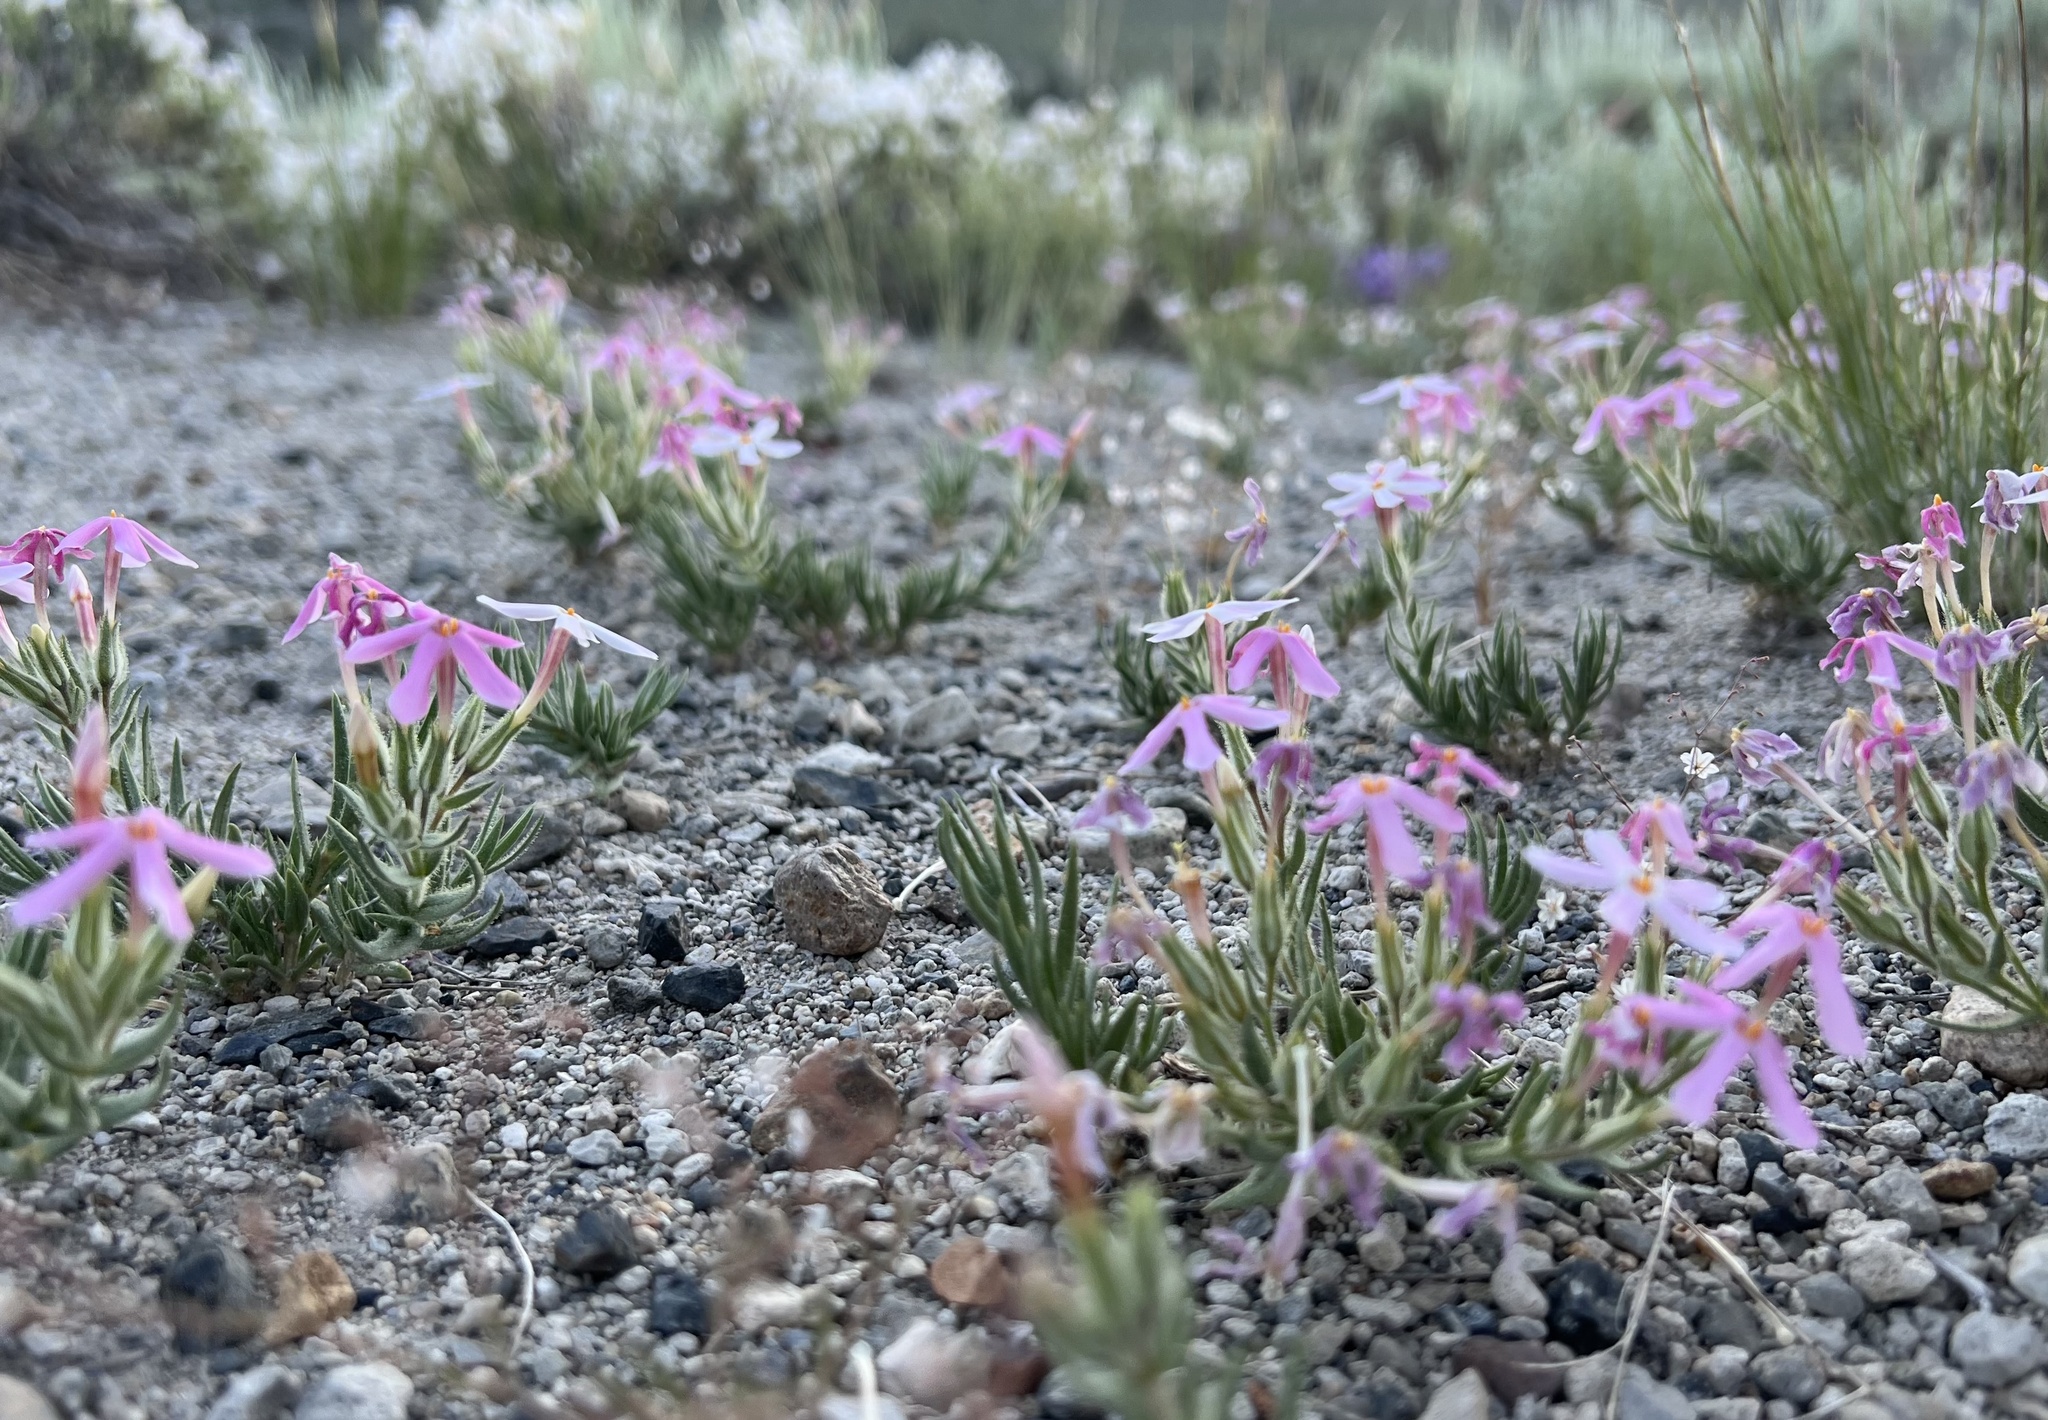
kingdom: Plantae
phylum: Tracheophyta
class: Magnoliopsida
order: Ericales
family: Polemoniaceae
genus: Phlox
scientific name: Phlox longifolia
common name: Longleaf phlox
